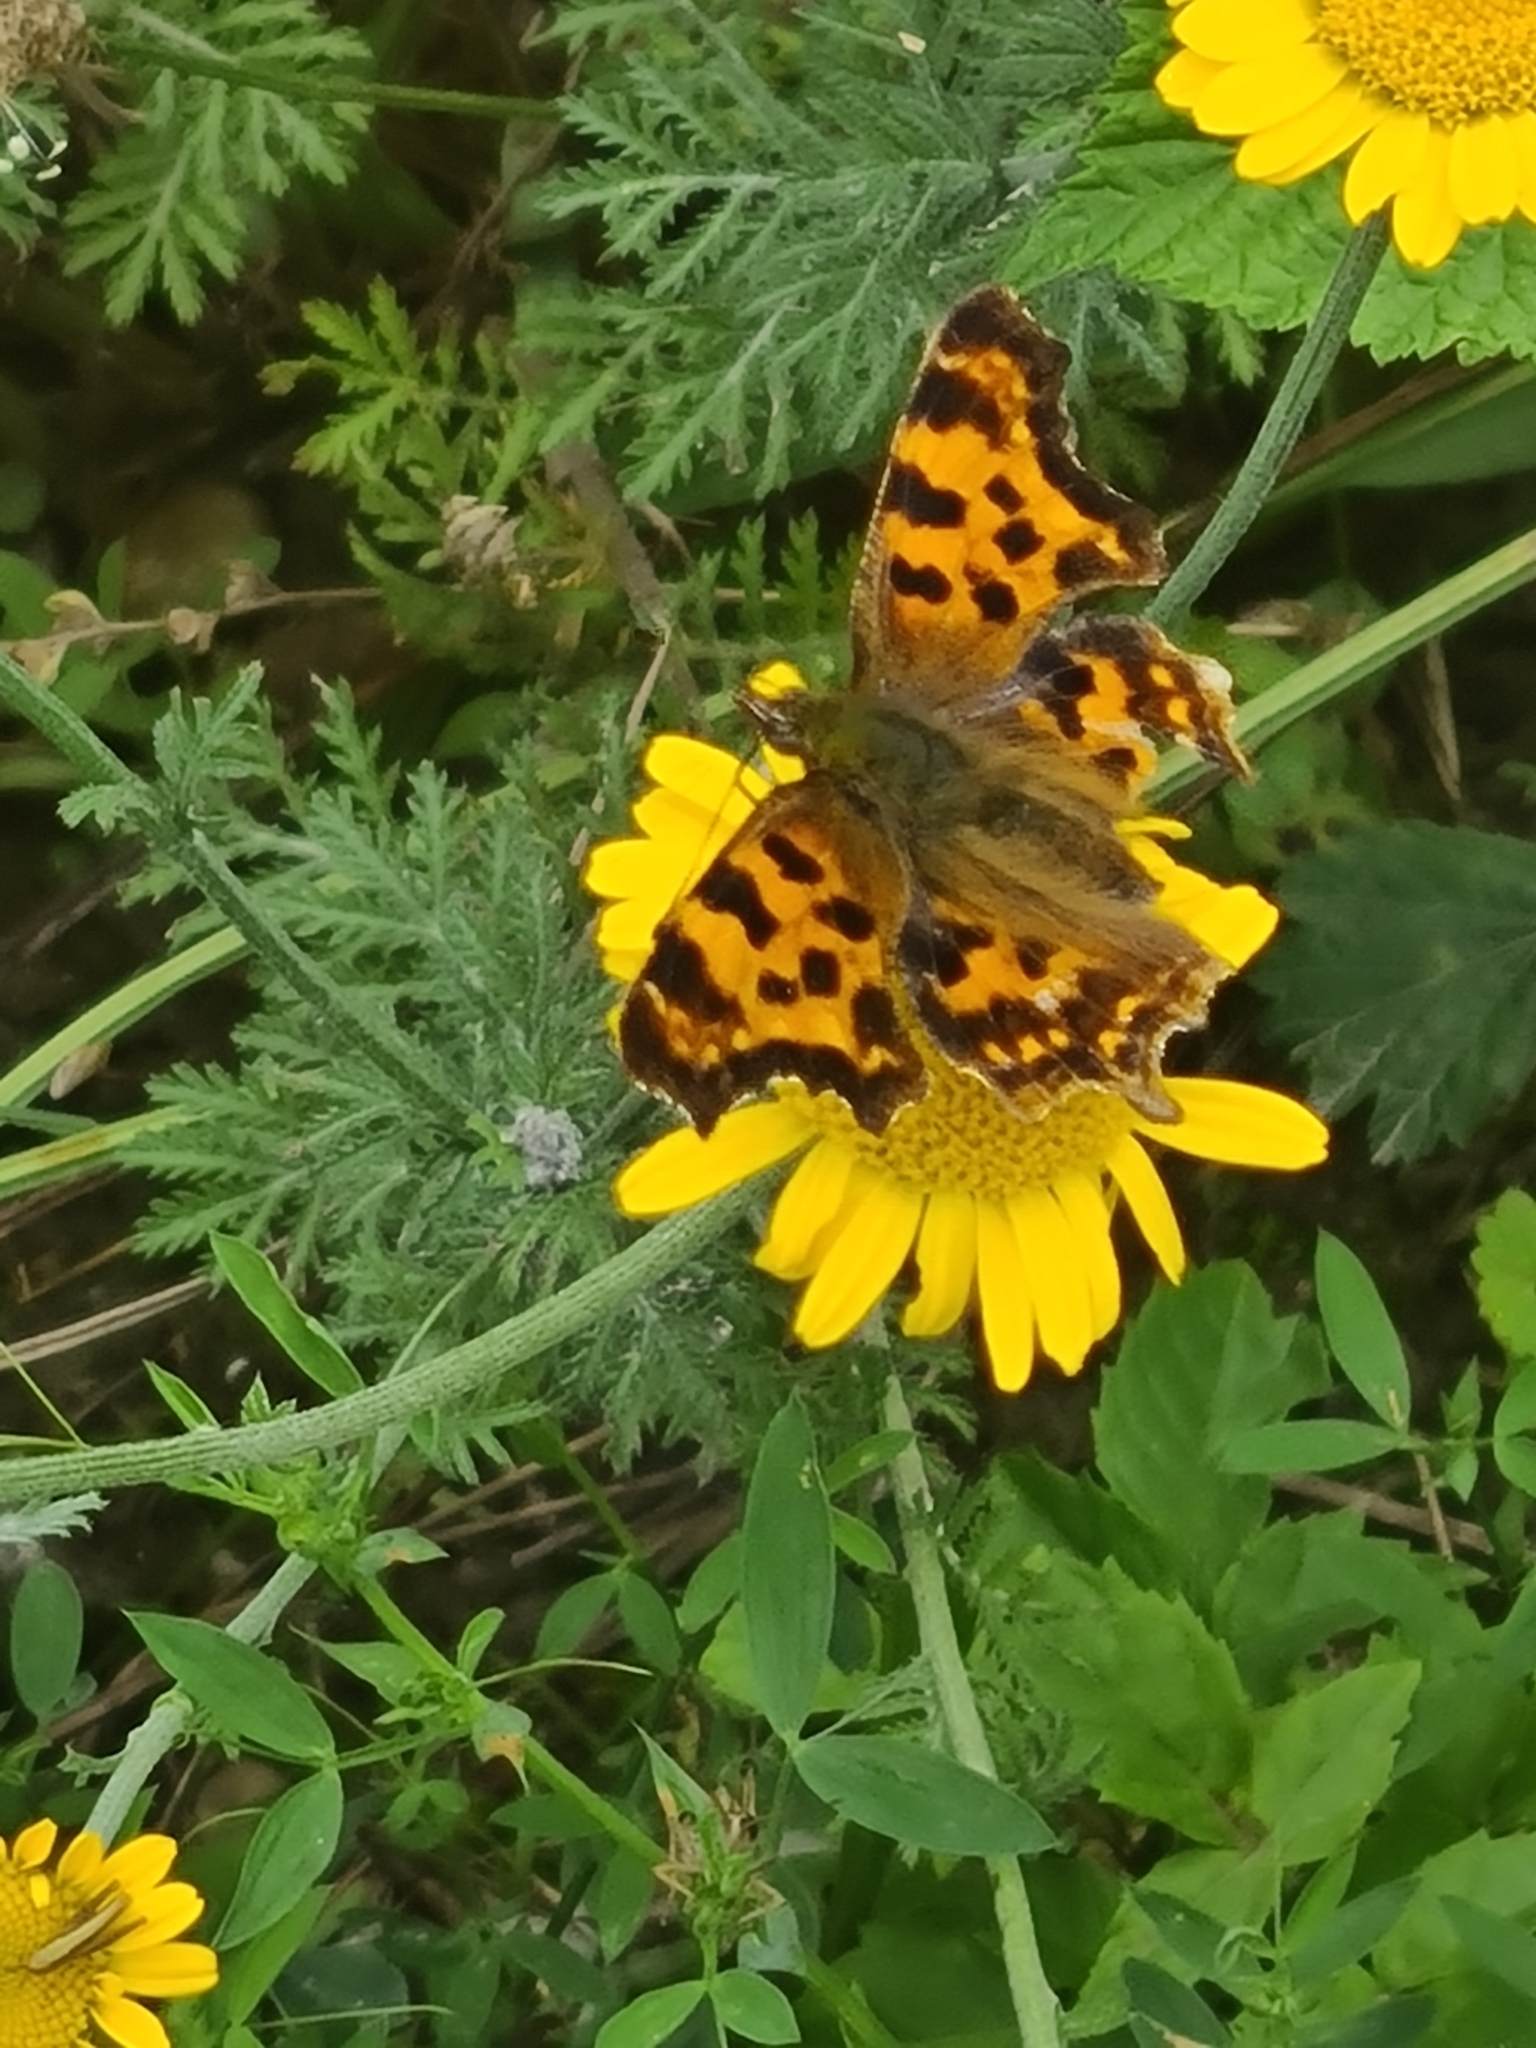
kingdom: Animalia
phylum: Arthropoda
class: Insecta
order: Lepidoptera
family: Nymphalidae
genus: Polygonia
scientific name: Polygonia c-album
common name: Comma
